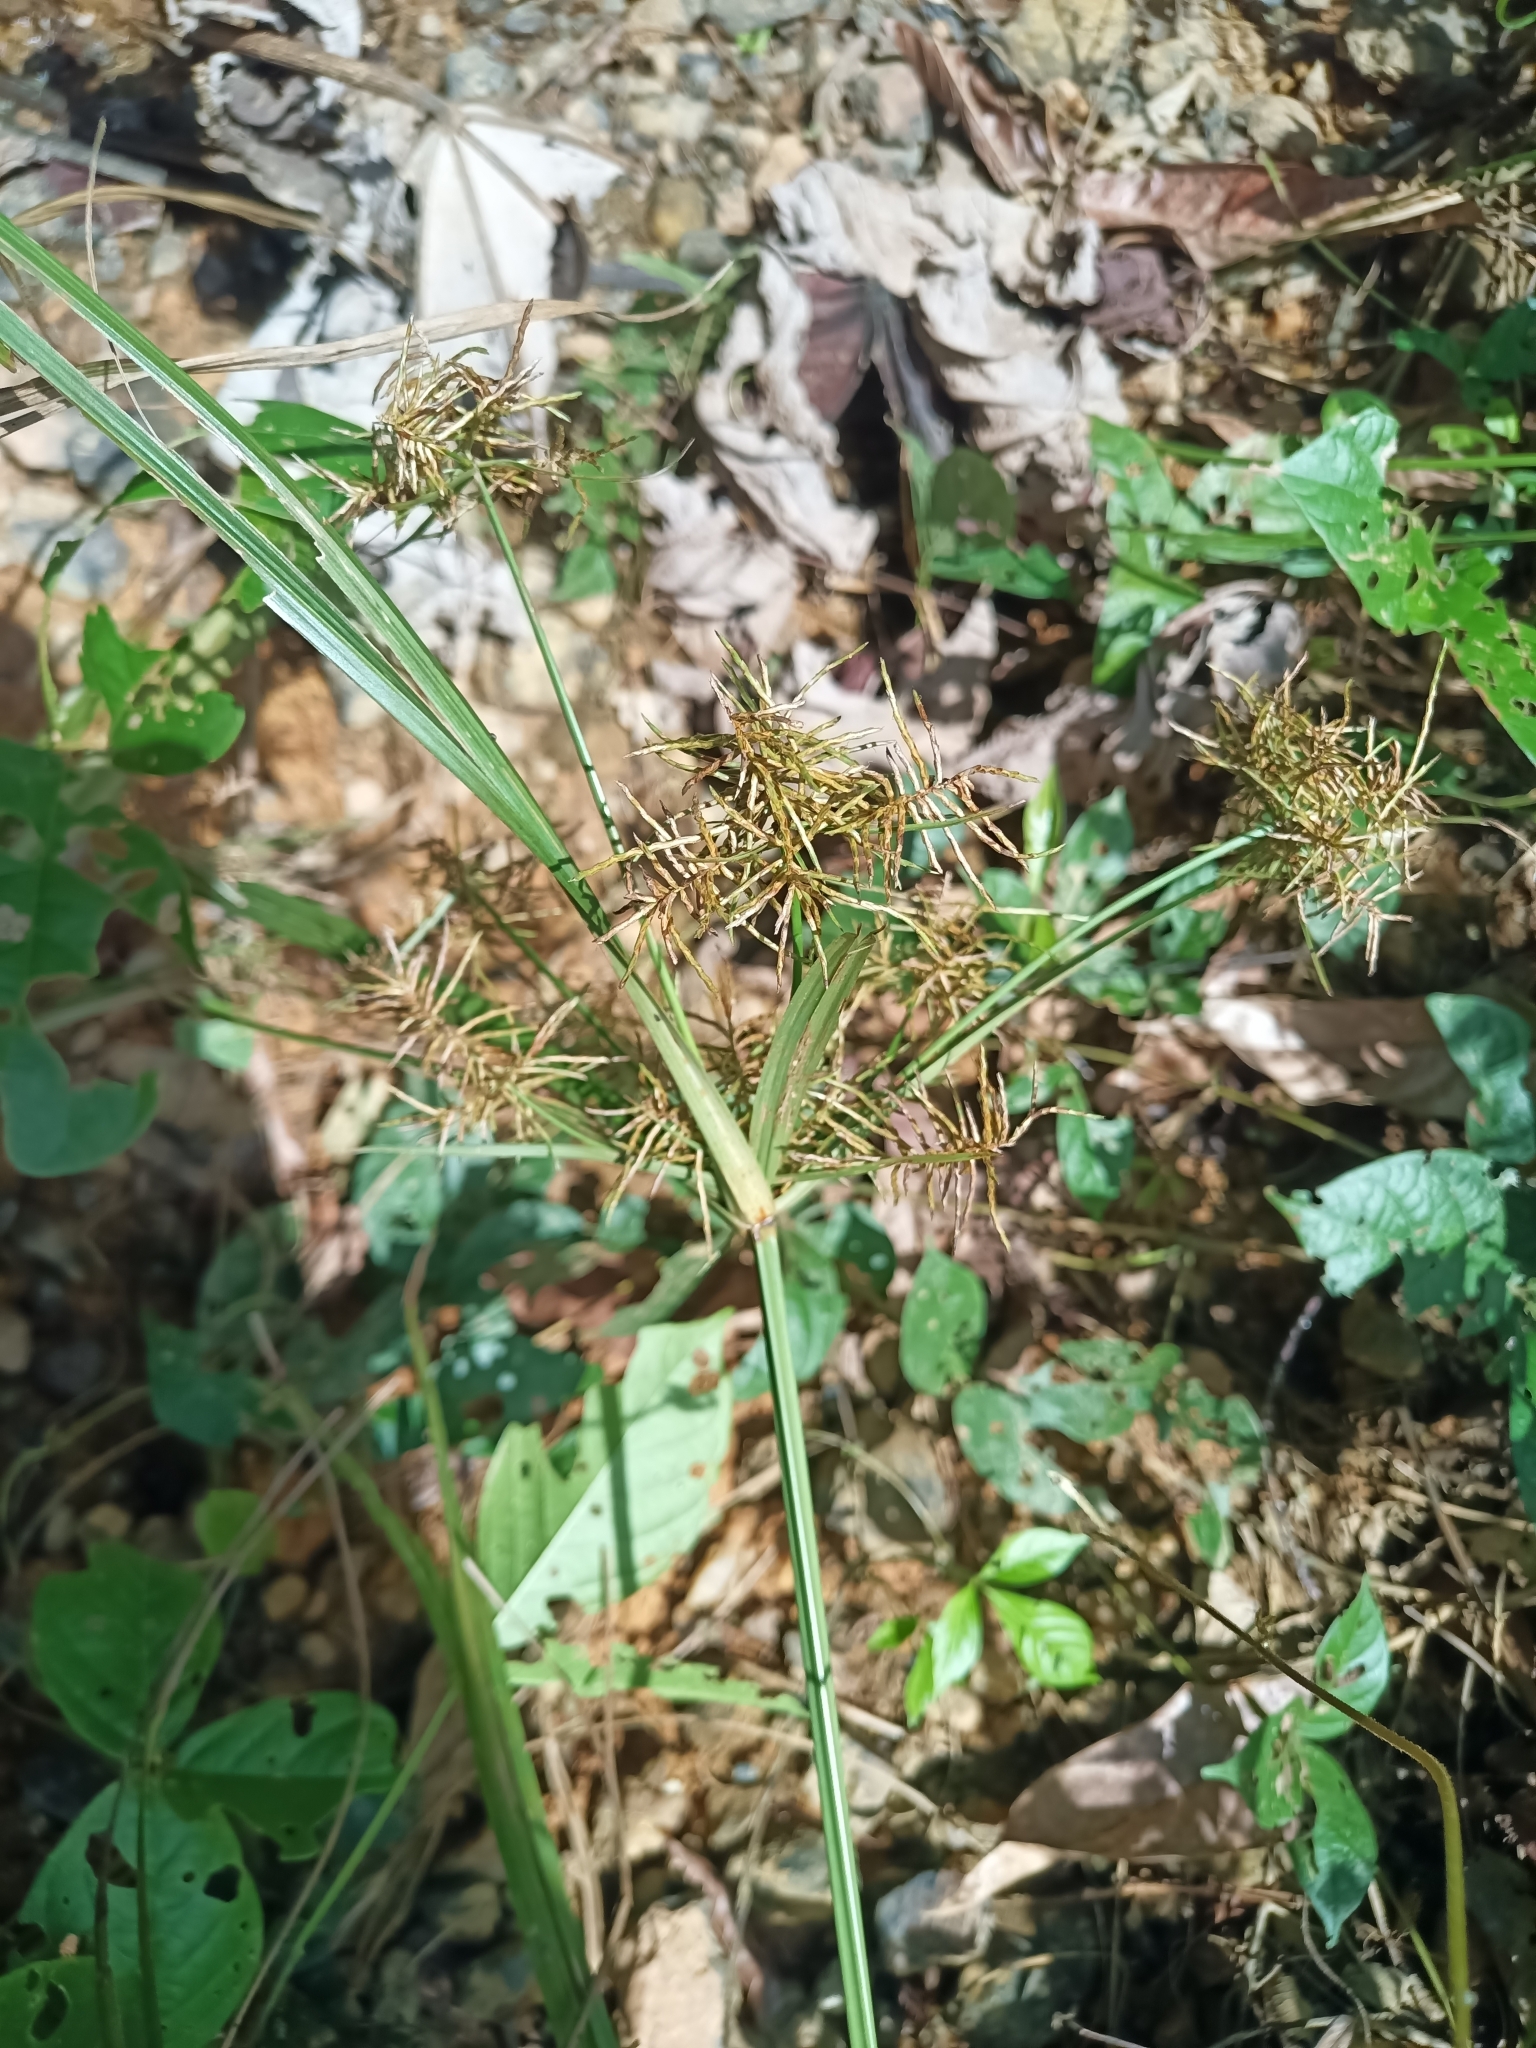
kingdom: Plantae
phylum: Tracheophyta
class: Liliopsida
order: Poales
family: Cyperaceae
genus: Cyperus
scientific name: Cyperus odoratus
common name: Fragrant flatsedge
